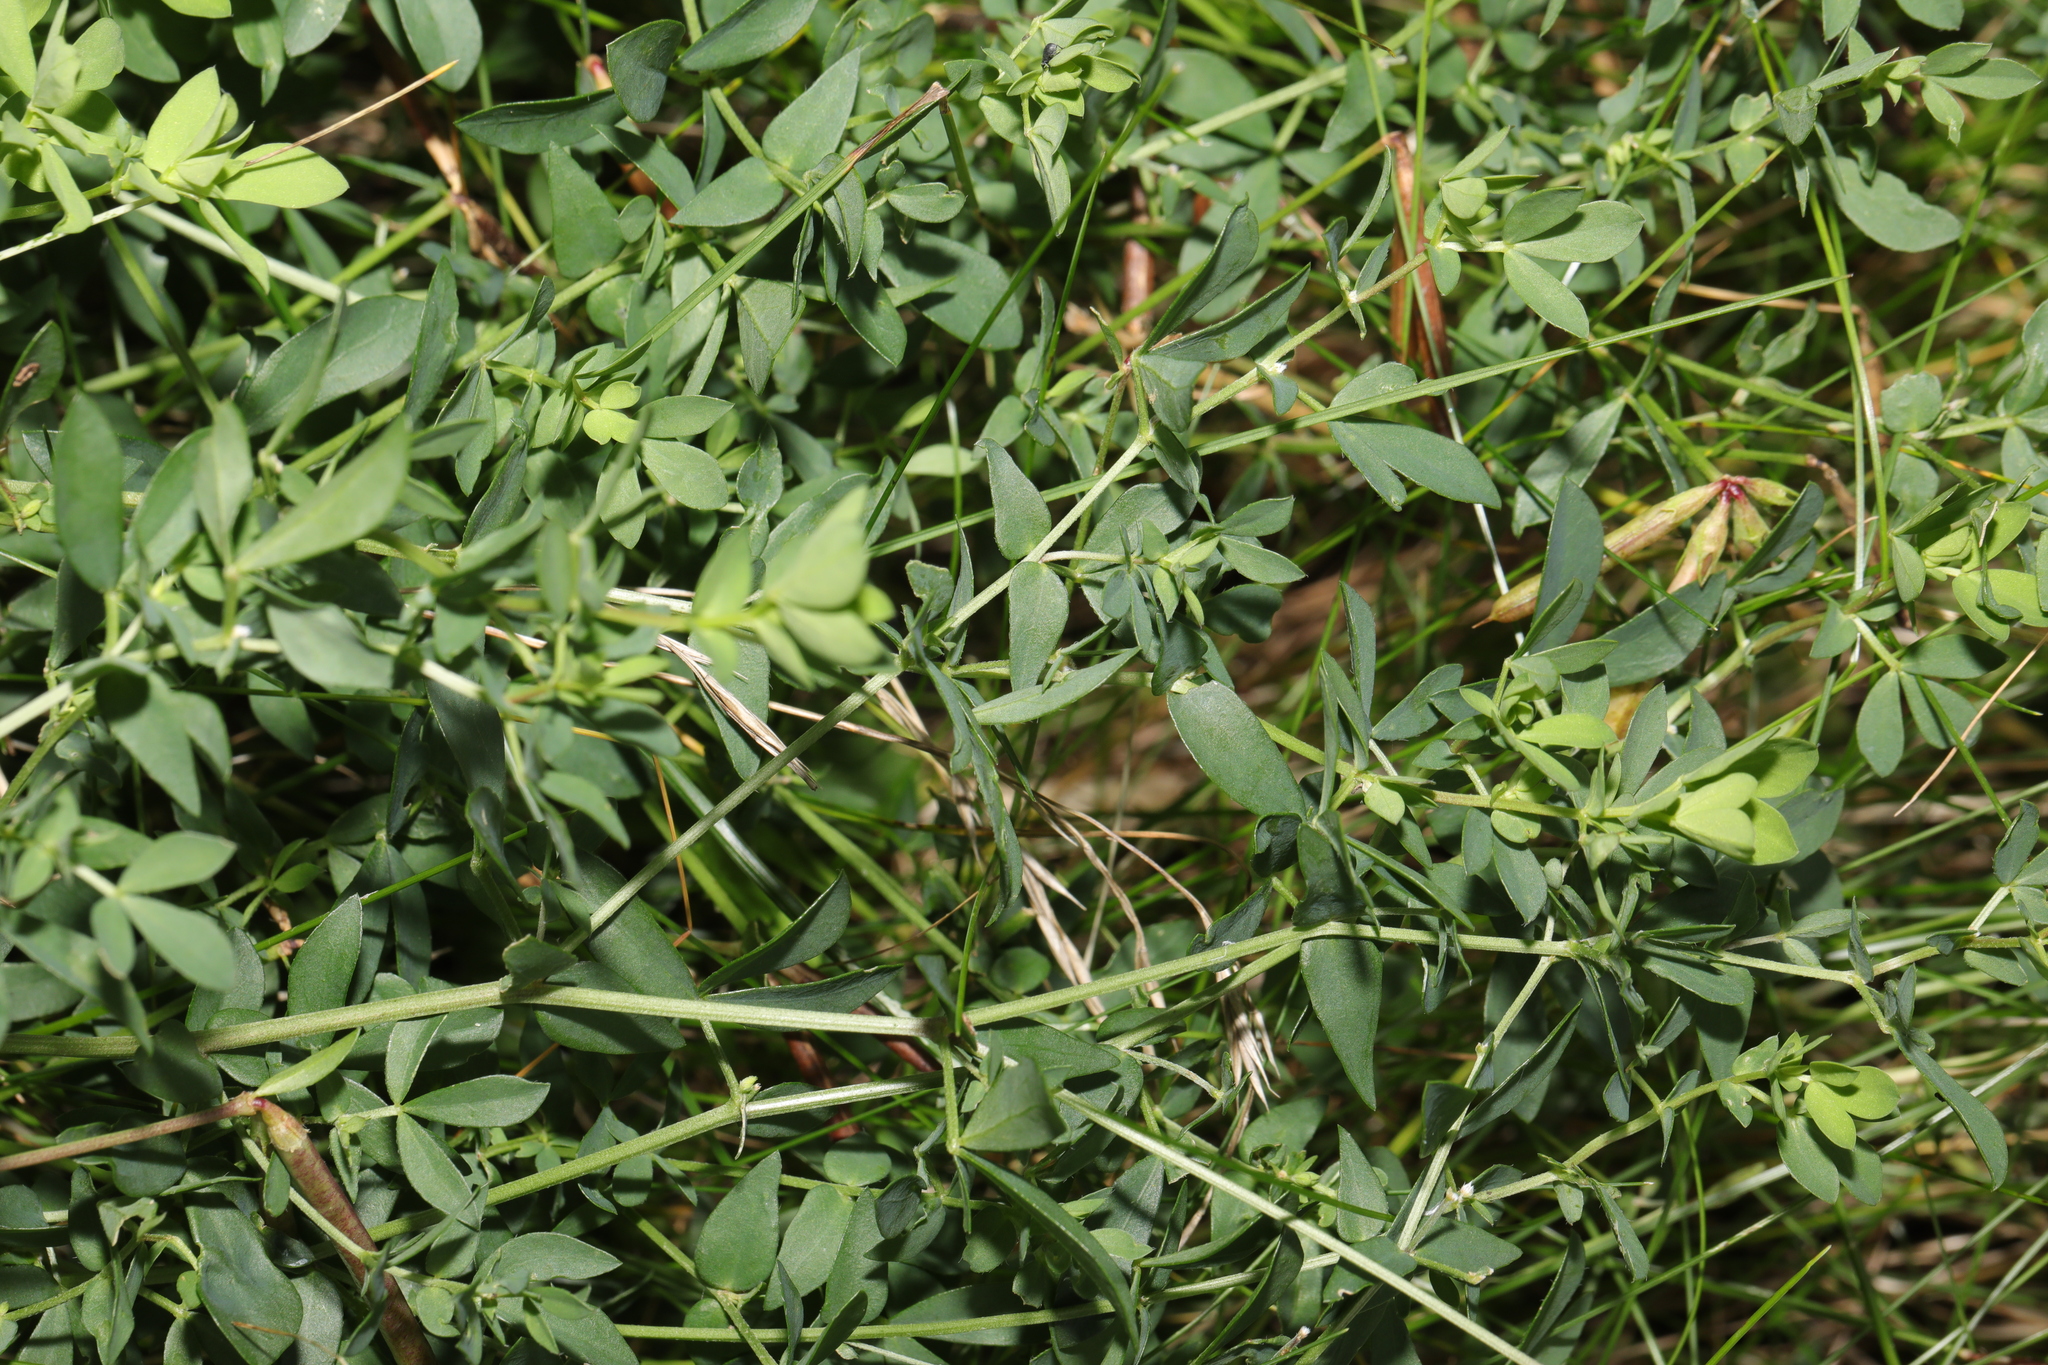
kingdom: Plantae
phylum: Tracheophyta
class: Magnoliopsida
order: Fabales
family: Fabaceae
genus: Lotus
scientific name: Lotus corniculatus
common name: Common bird's-foot-trefoil
